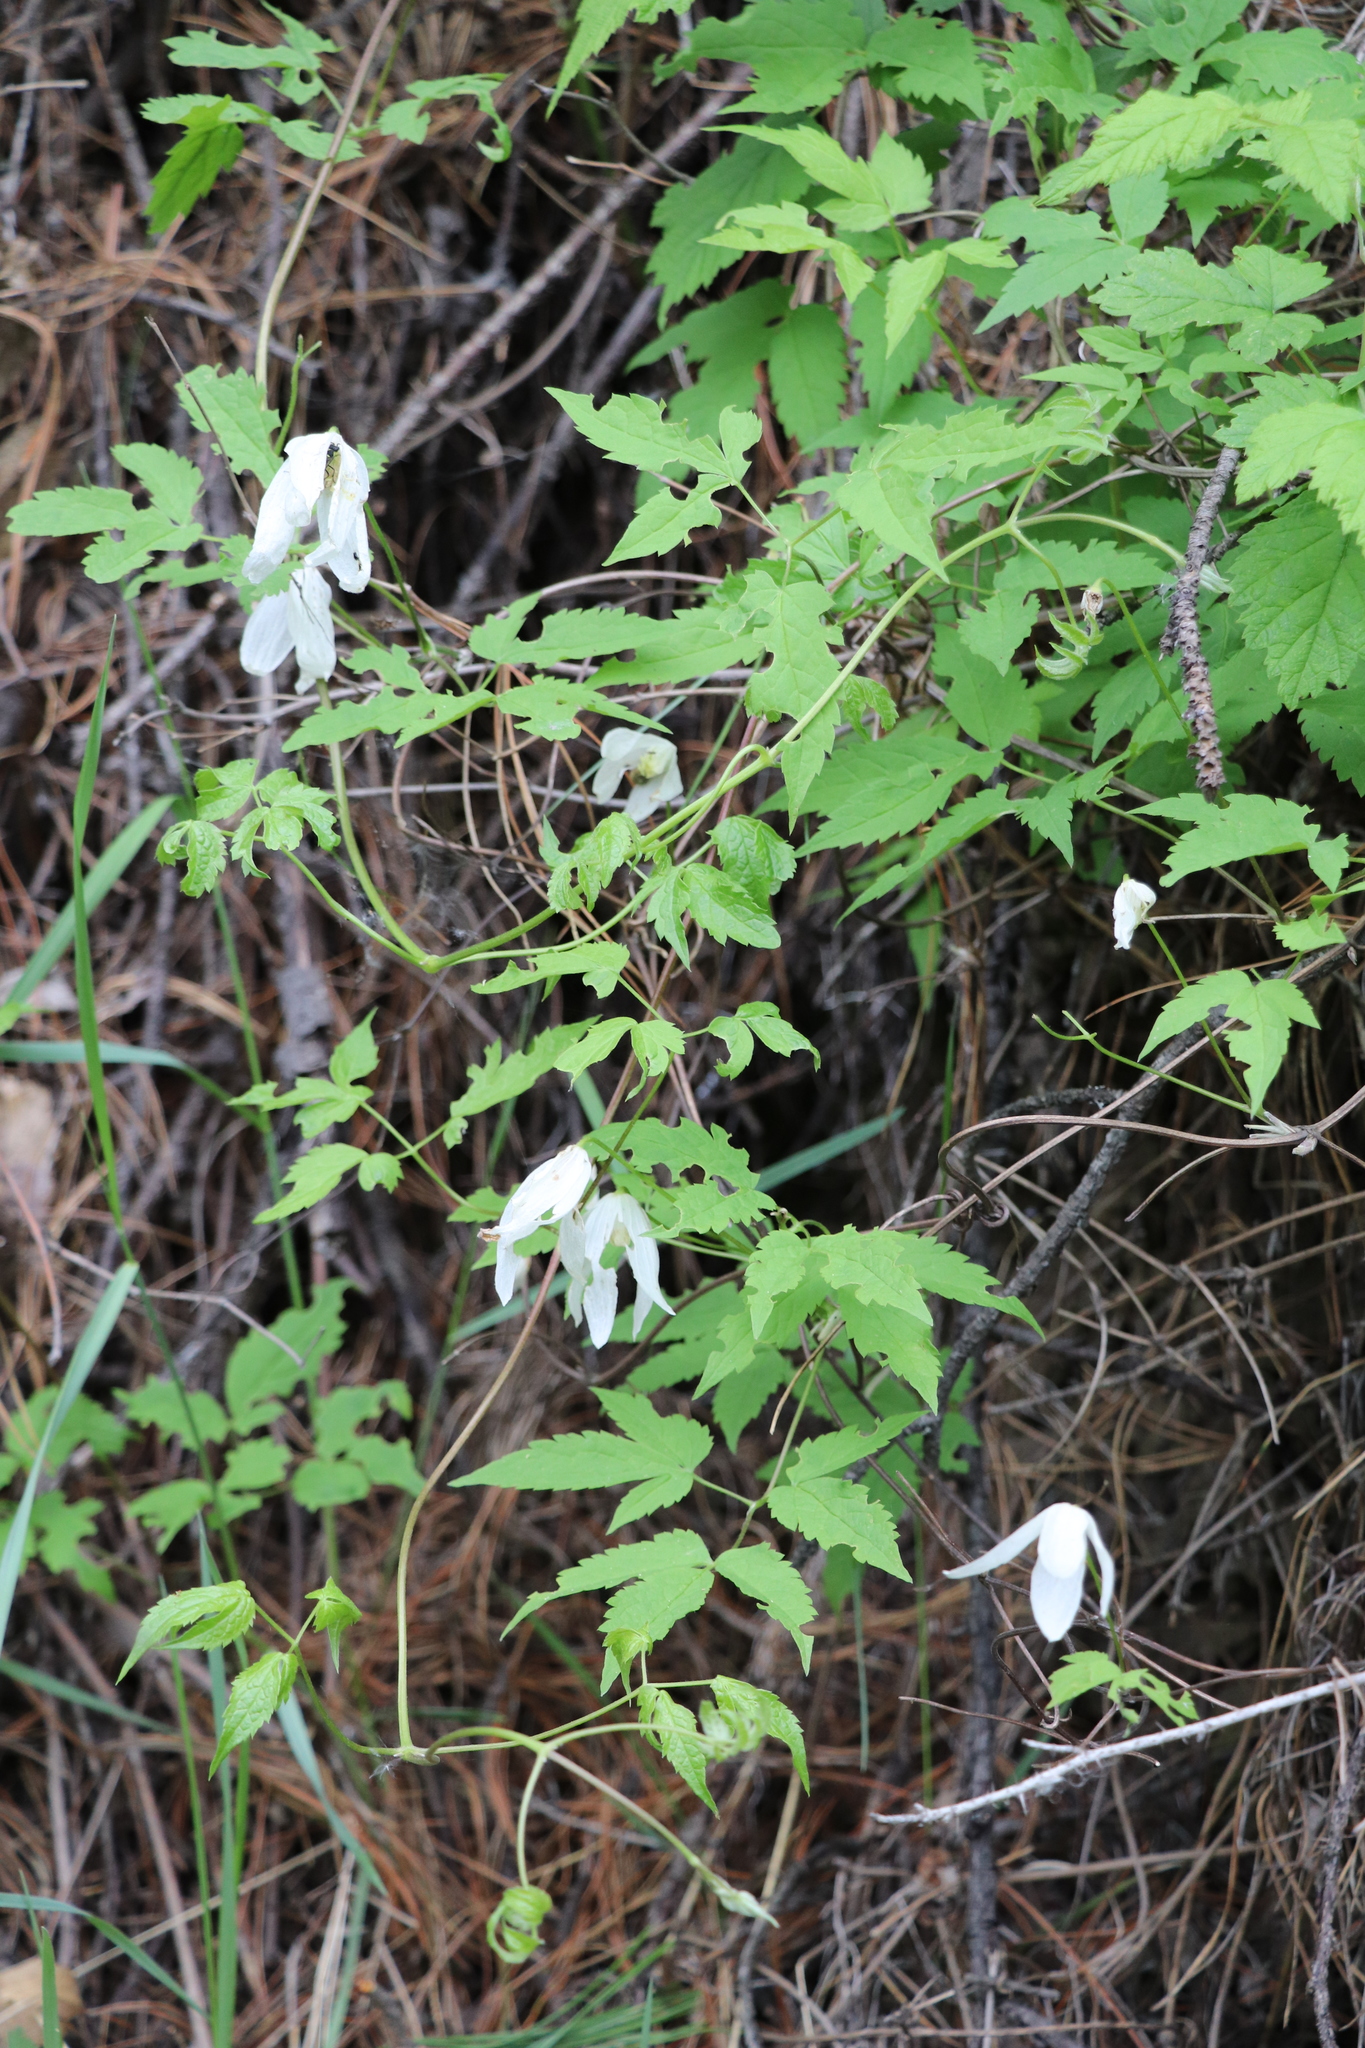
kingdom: Plantae
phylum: Tracheophyta
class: Magnoliopsida
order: Ranunculales
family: Ranunculaceae
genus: Clematis
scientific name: Clematis sibirica
